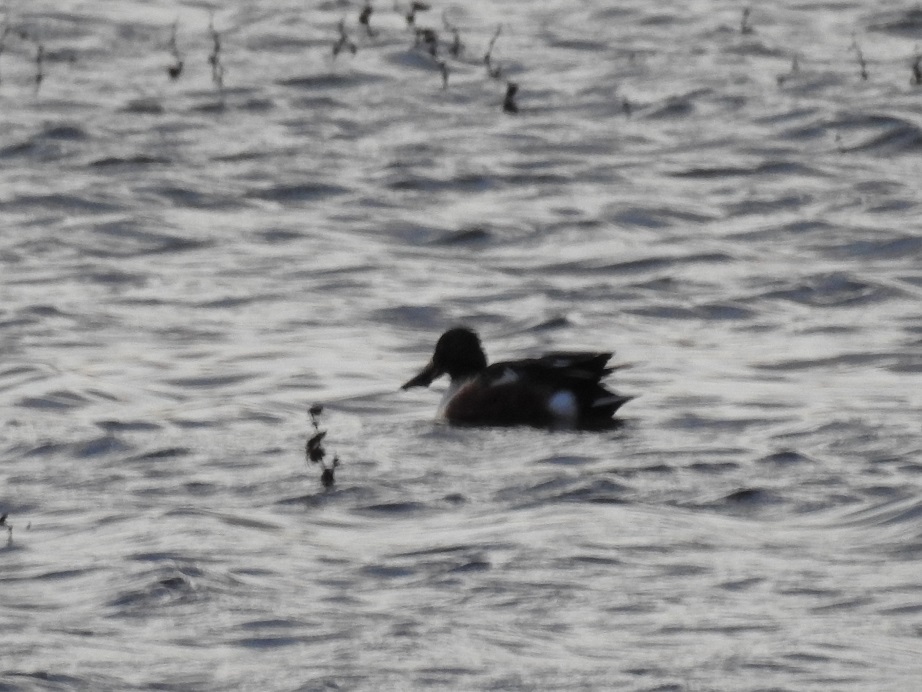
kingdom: Animalia
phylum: Chordata
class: Aves
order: Anseriformes
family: Anatidae
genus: Spatula
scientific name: Spatula clypeata
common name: Northern shoveler
